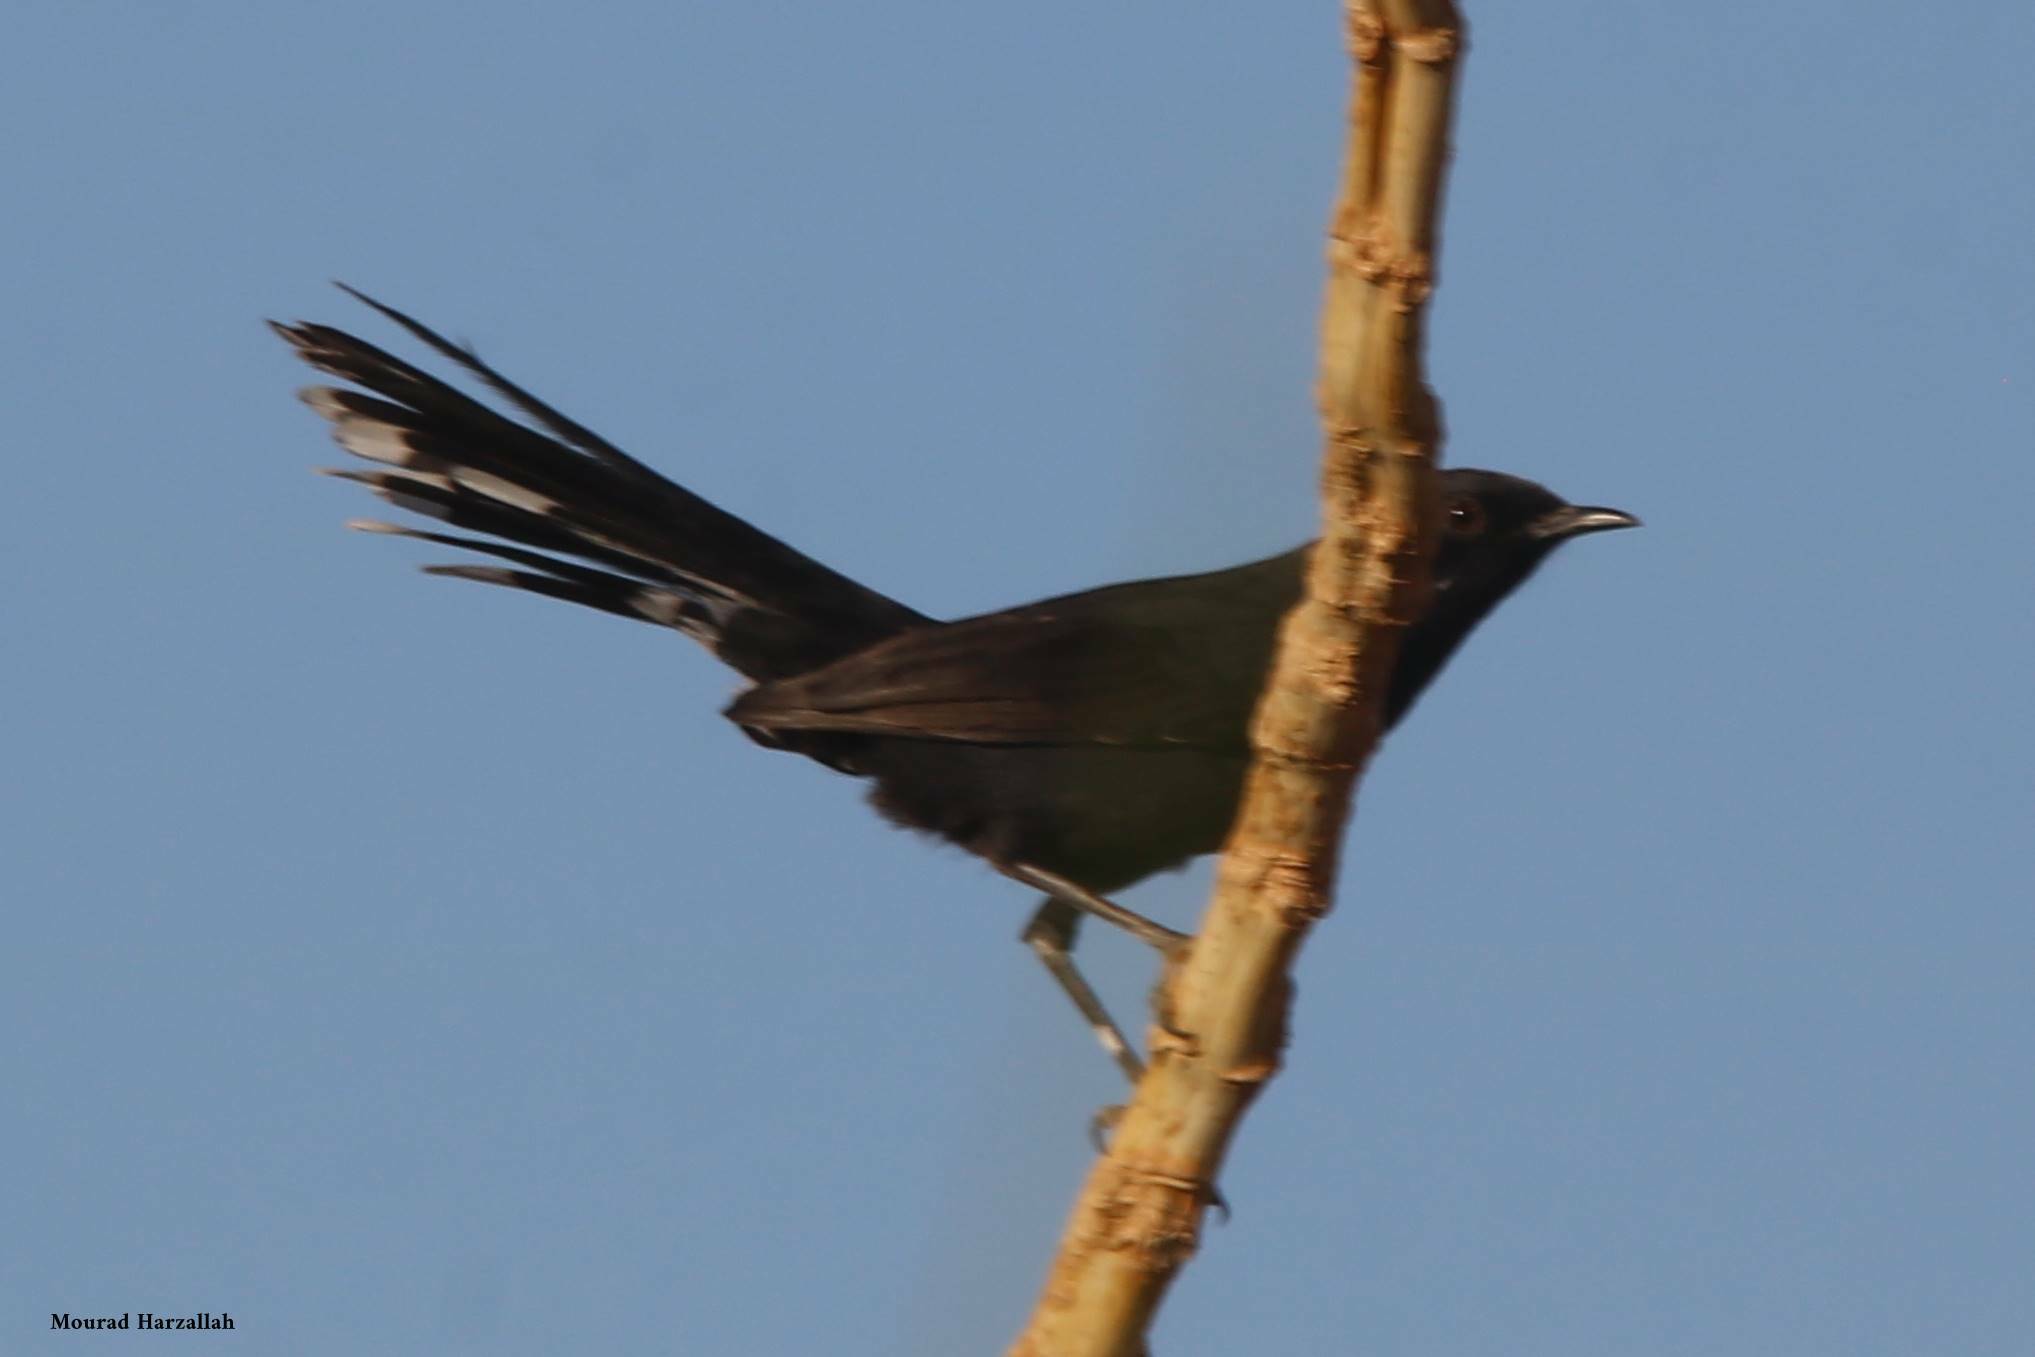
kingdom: Animalia
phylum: Chordata
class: Aves
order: Passeriformes
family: Muscicapidae
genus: Cercotrichas
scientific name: Cercotrichas podobe
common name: Black scrub robin
